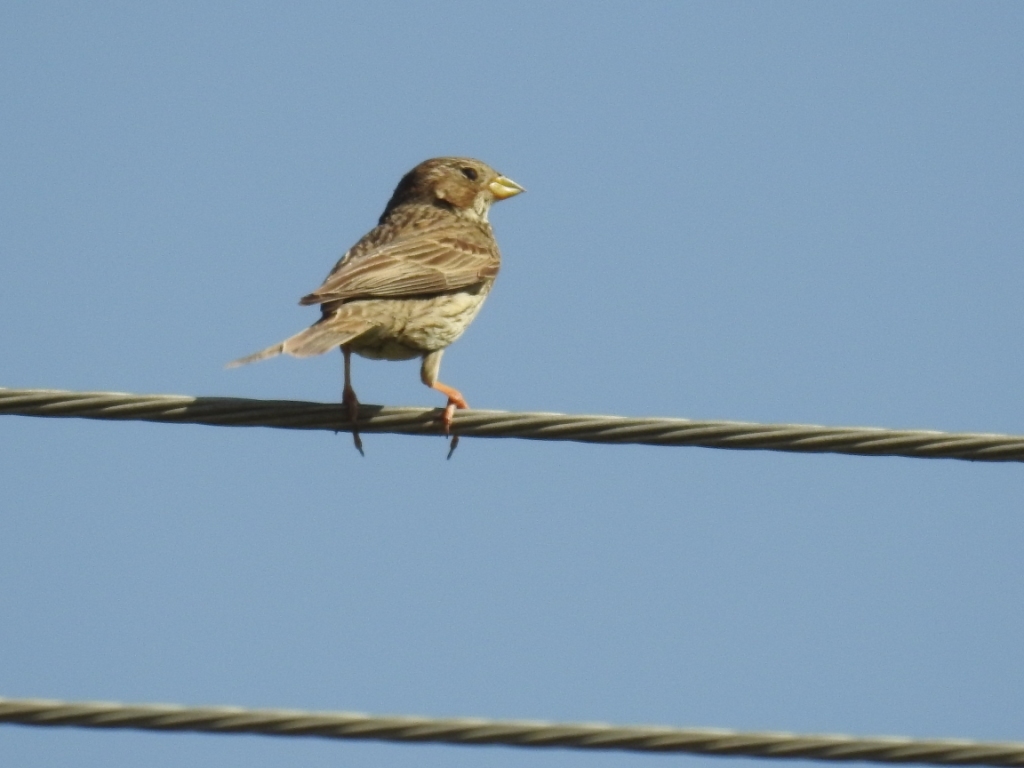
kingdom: Animalia
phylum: Chordata
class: Aves
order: Passeriformes
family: Emberizidae
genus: Emberiza
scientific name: Emberiza calandra
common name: Corn bunting
